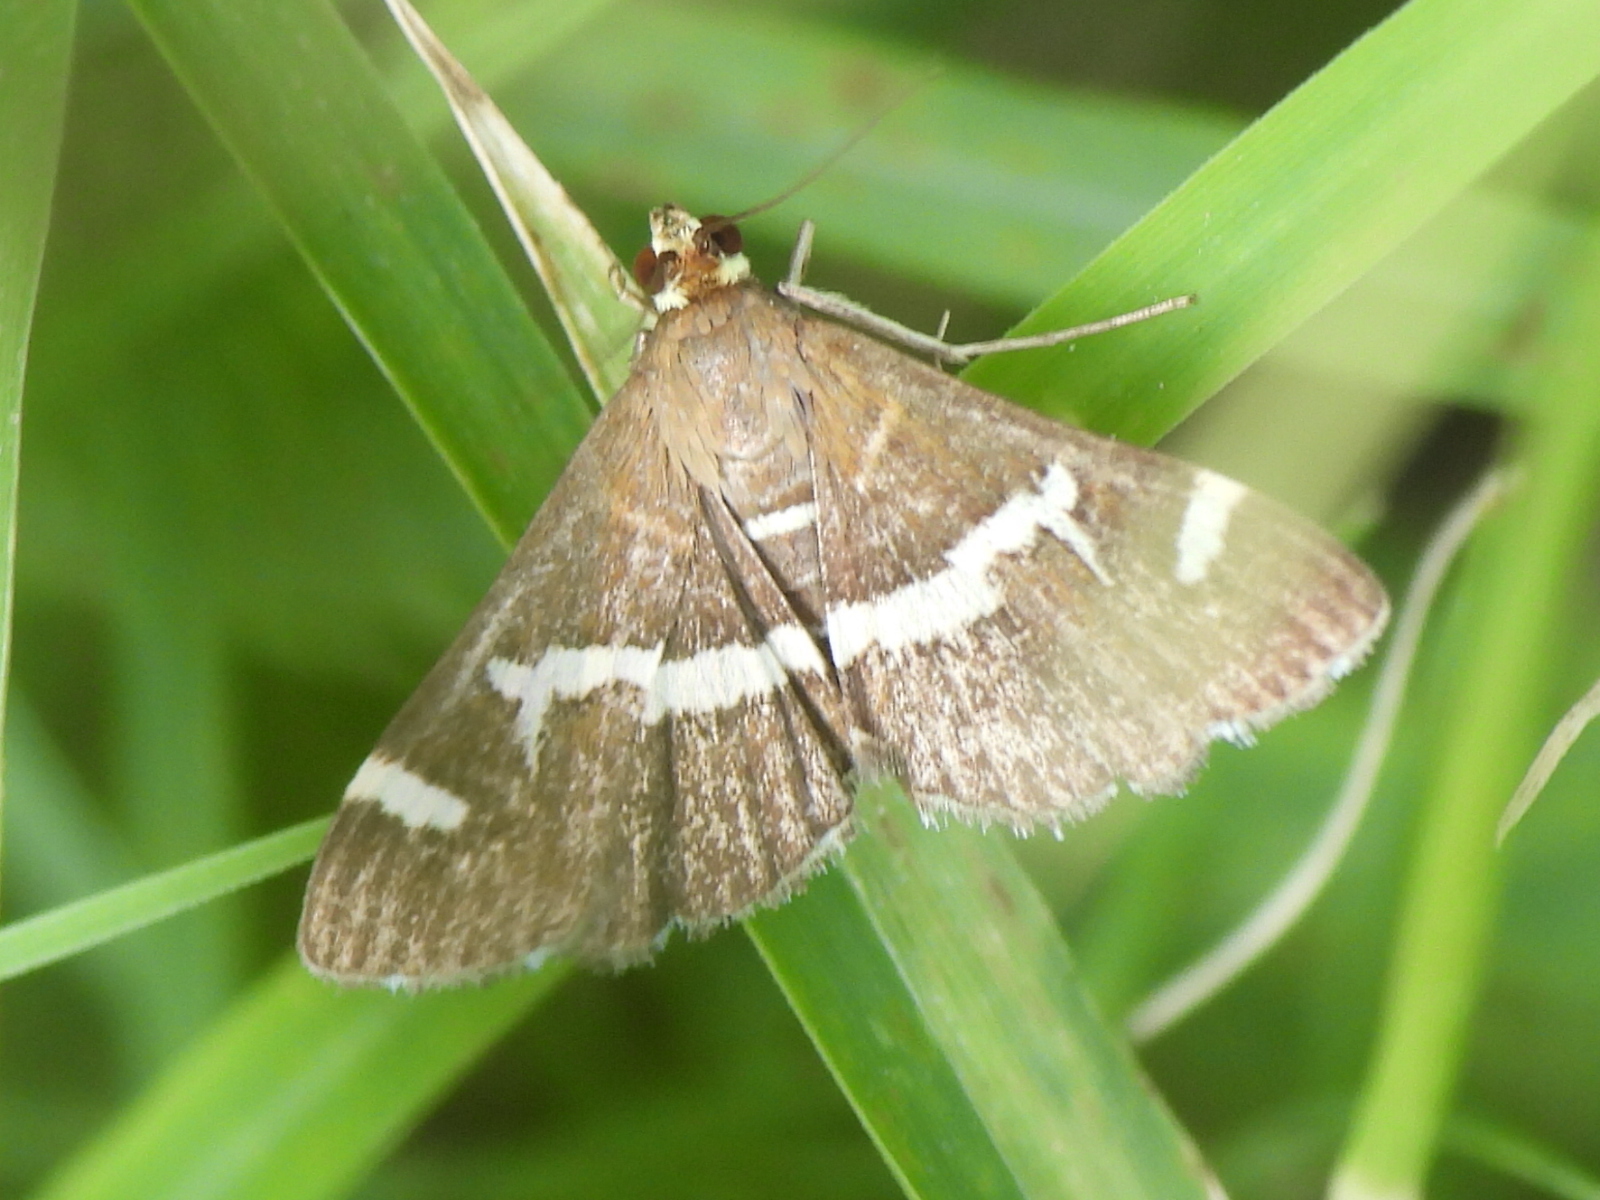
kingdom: Animalia
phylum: Arthropoda
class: Insecta
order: Lepidoptera
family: Crambidae
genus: Spoladea
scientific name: Spoladea recurvalis
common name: Beet webworm moth
